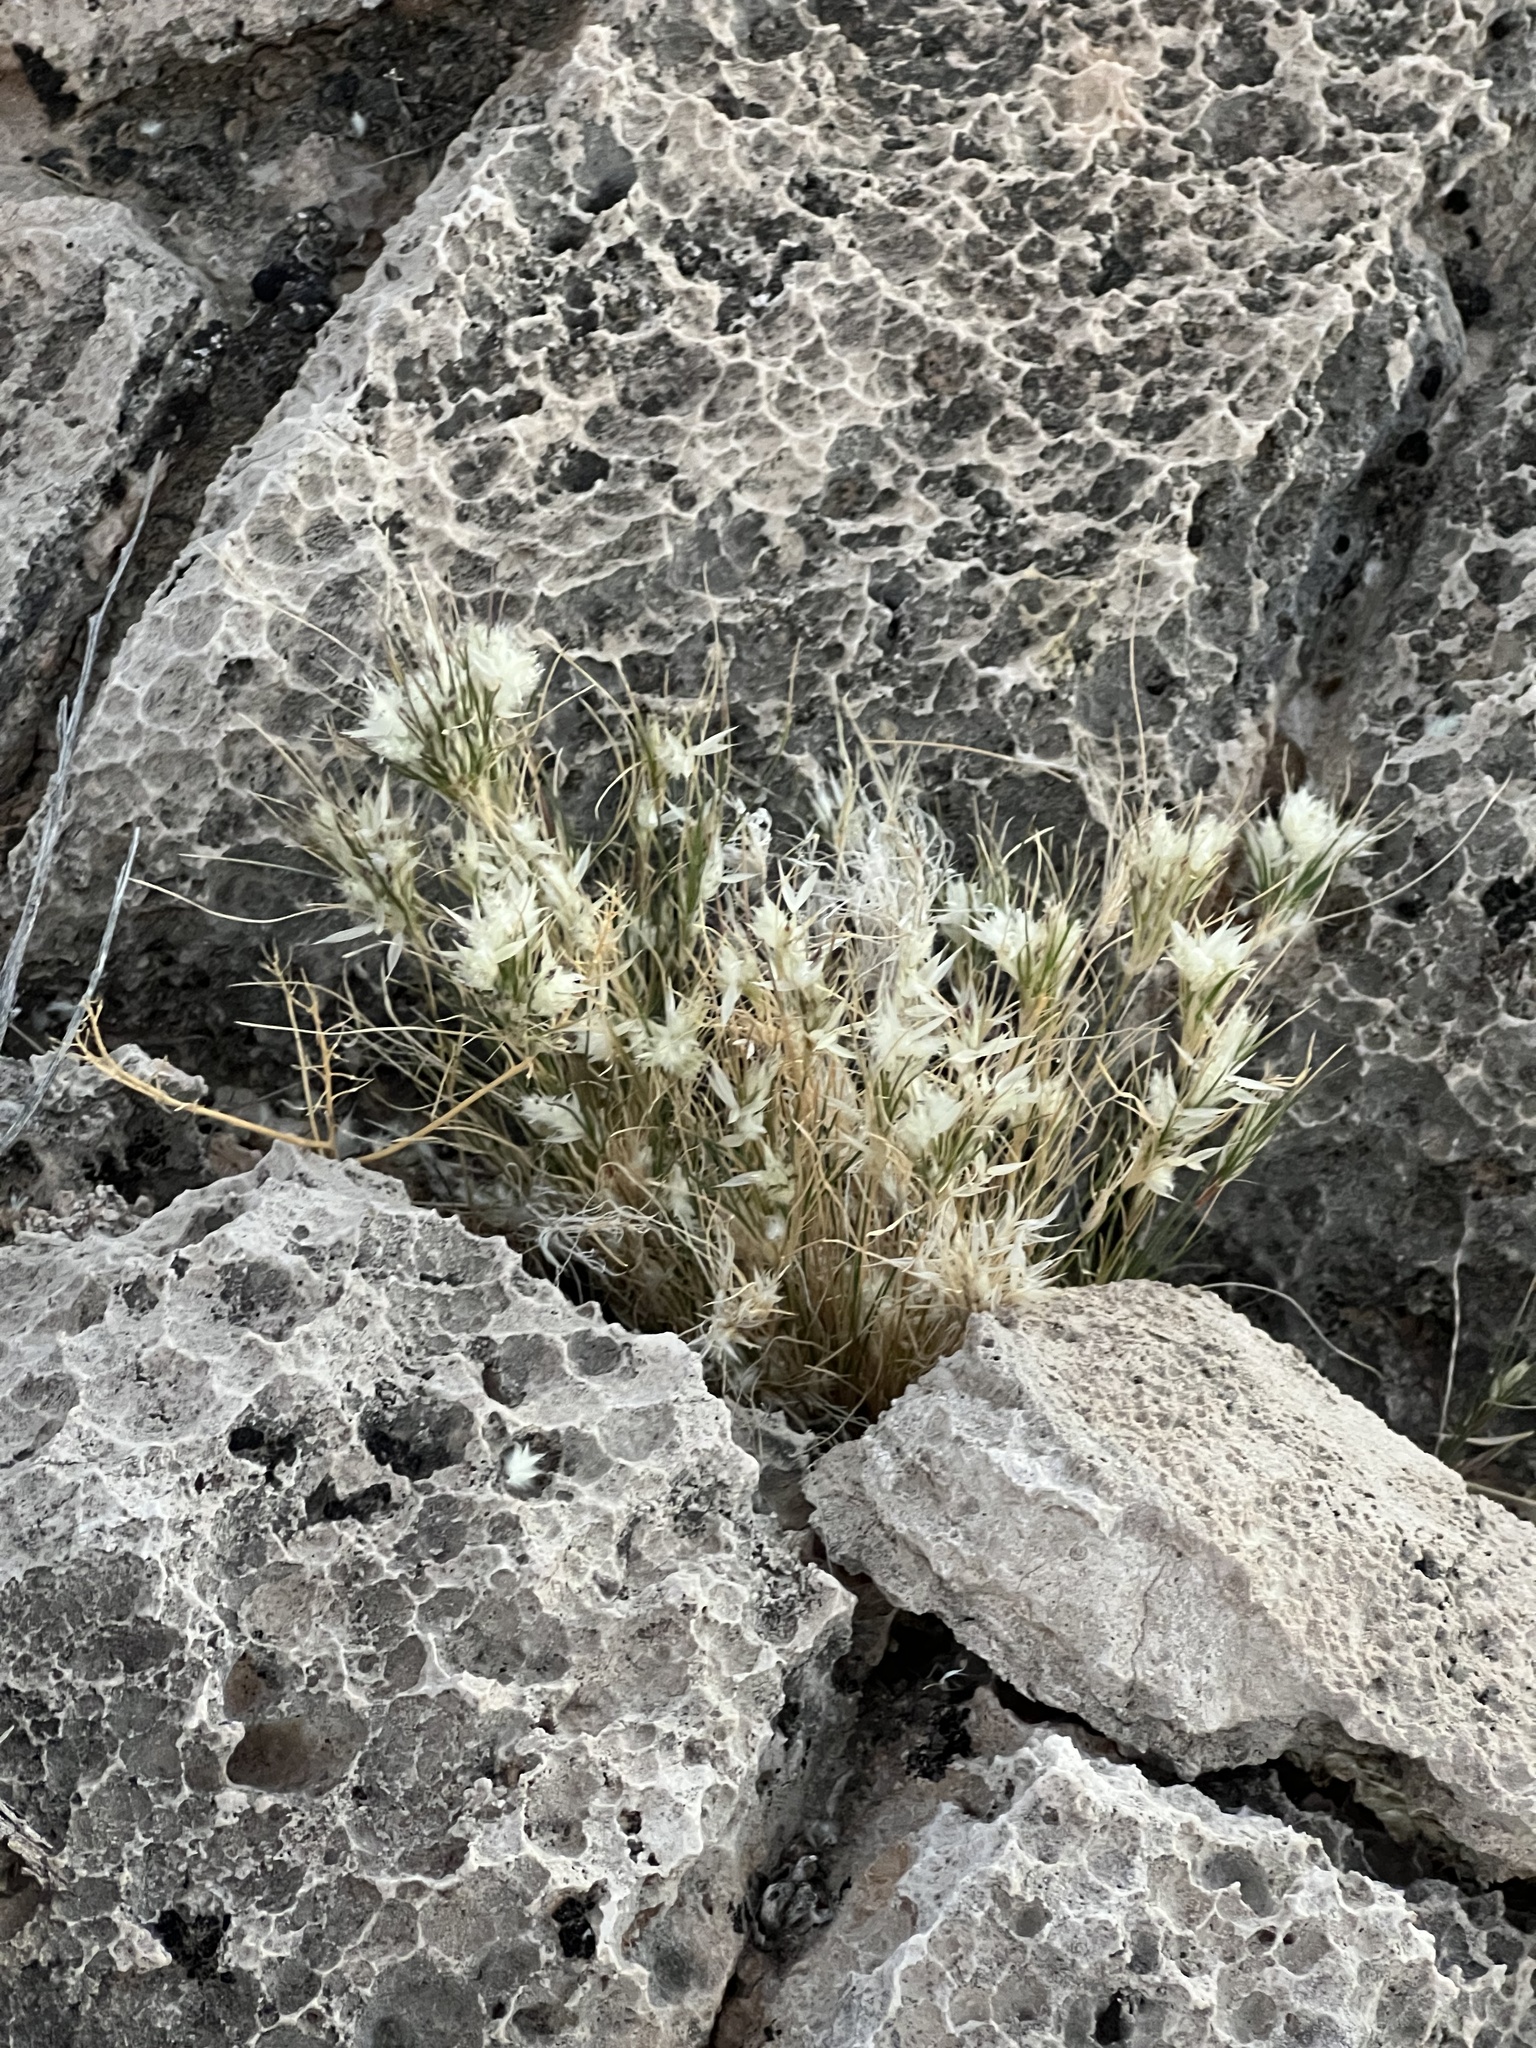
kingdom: Plantae
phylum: Tracheophyta
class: Liliopsida
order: Poales
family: Poaceae
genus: Dasyochloa
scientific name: Dasyochloa pulchella
